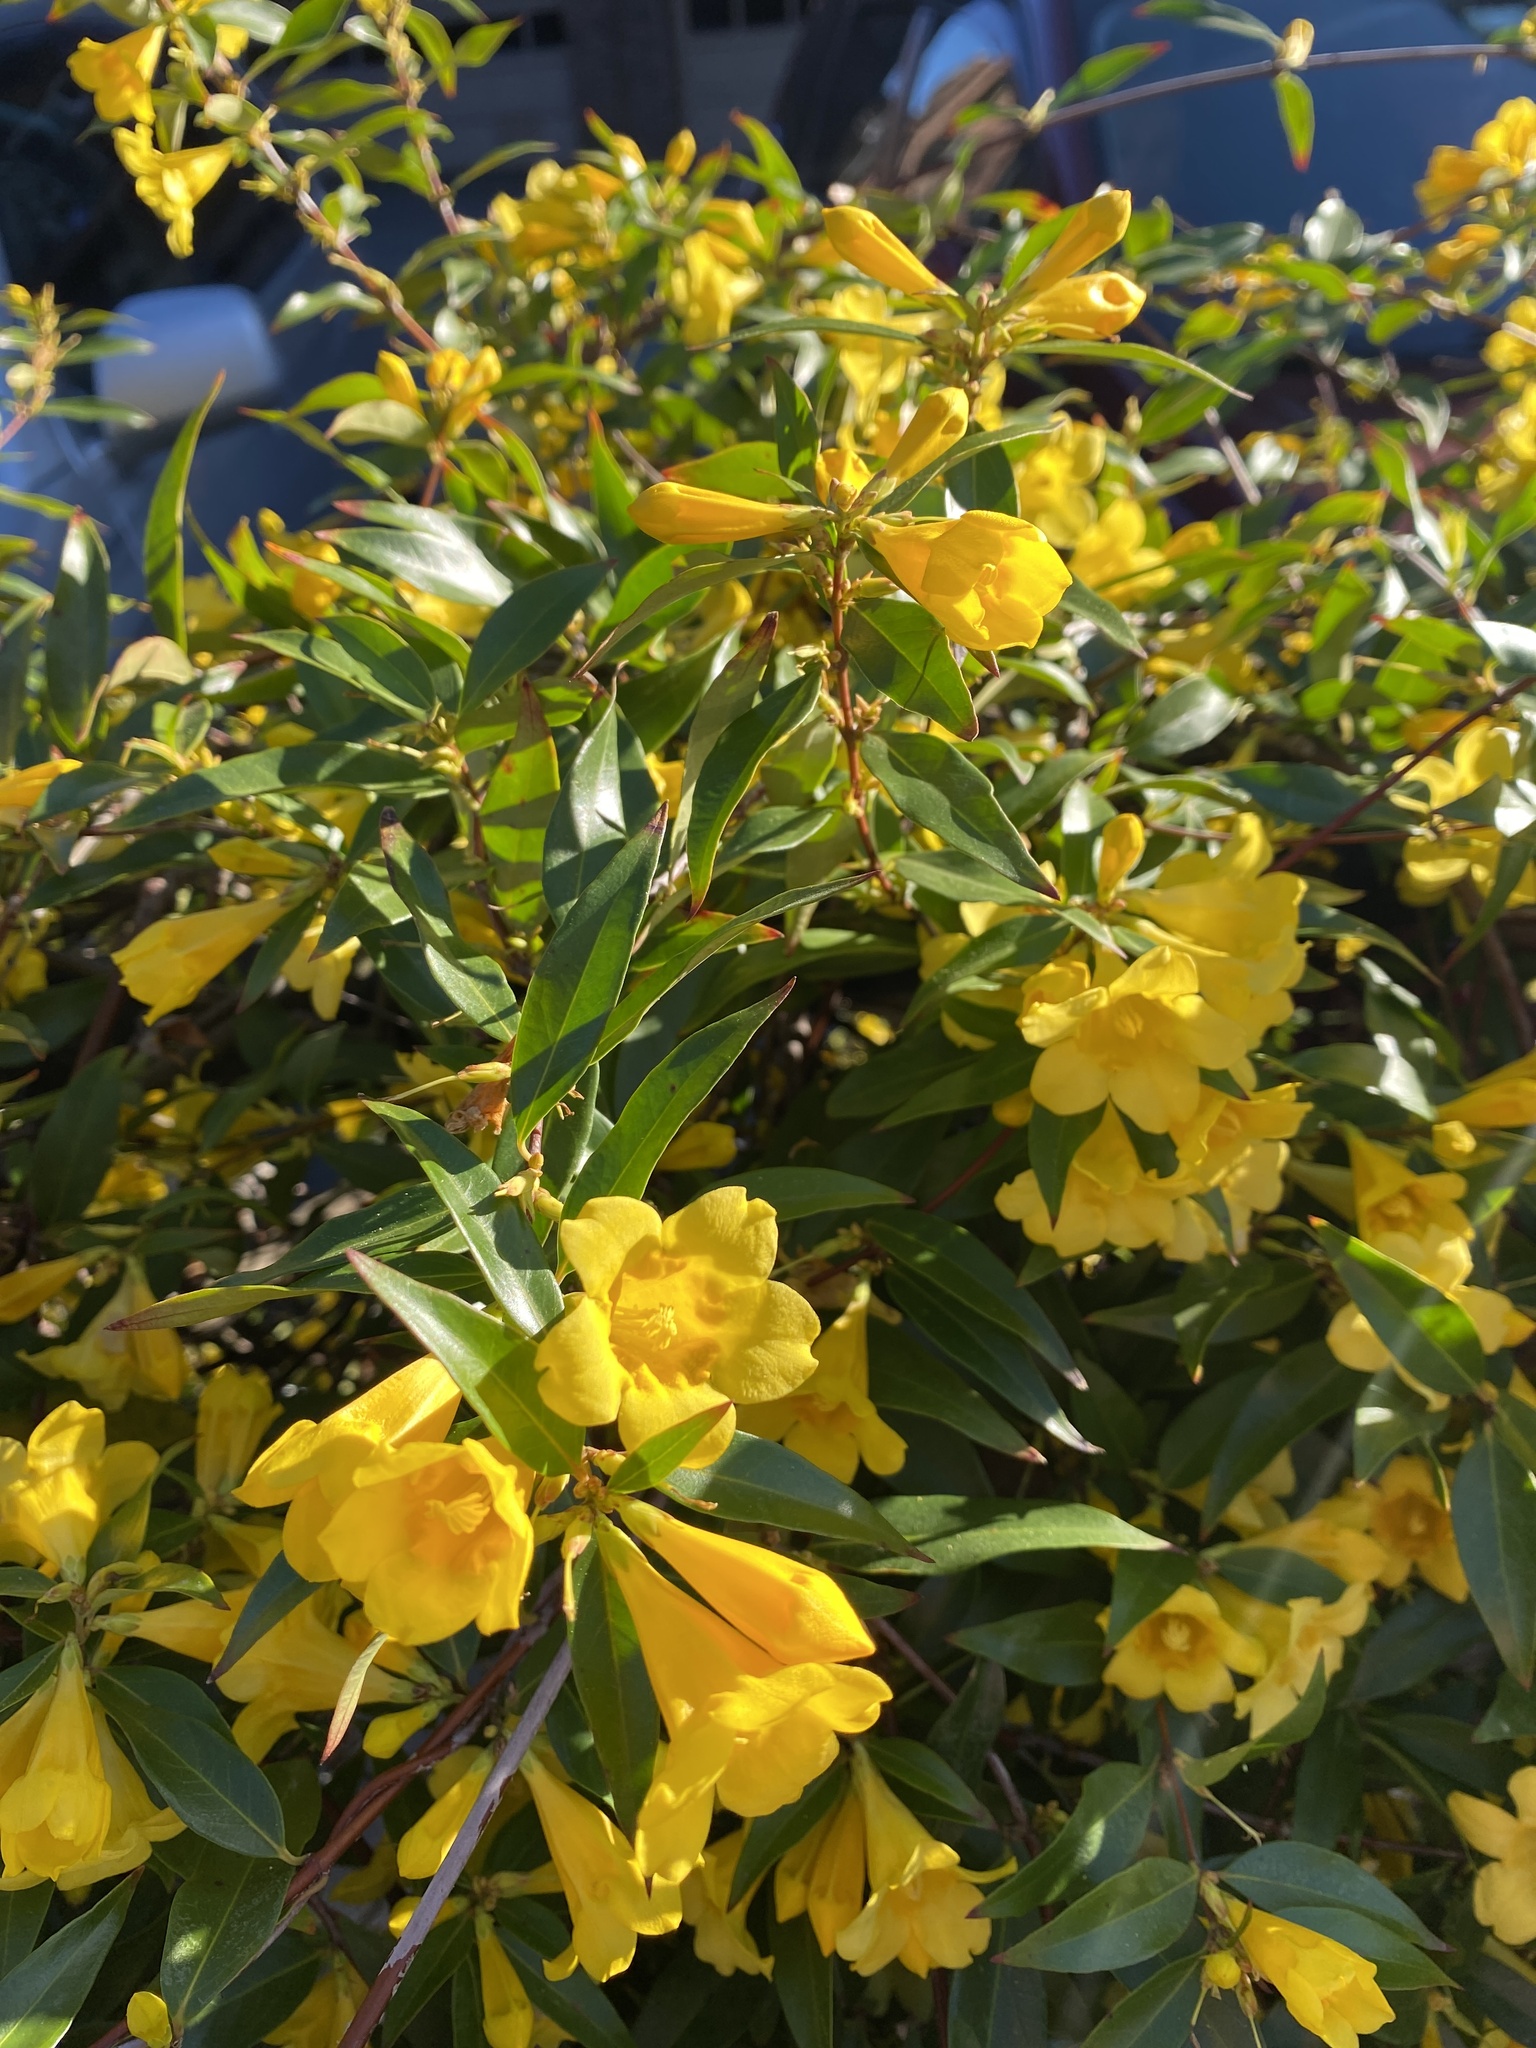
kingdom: Plantae
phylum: Tracheophyta
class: Magnoliopsida
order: Gentianales
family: Gelsemiaceae
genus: Gelsemium
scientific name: Gelsemium sempervirens
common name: Carolina-jasmine
